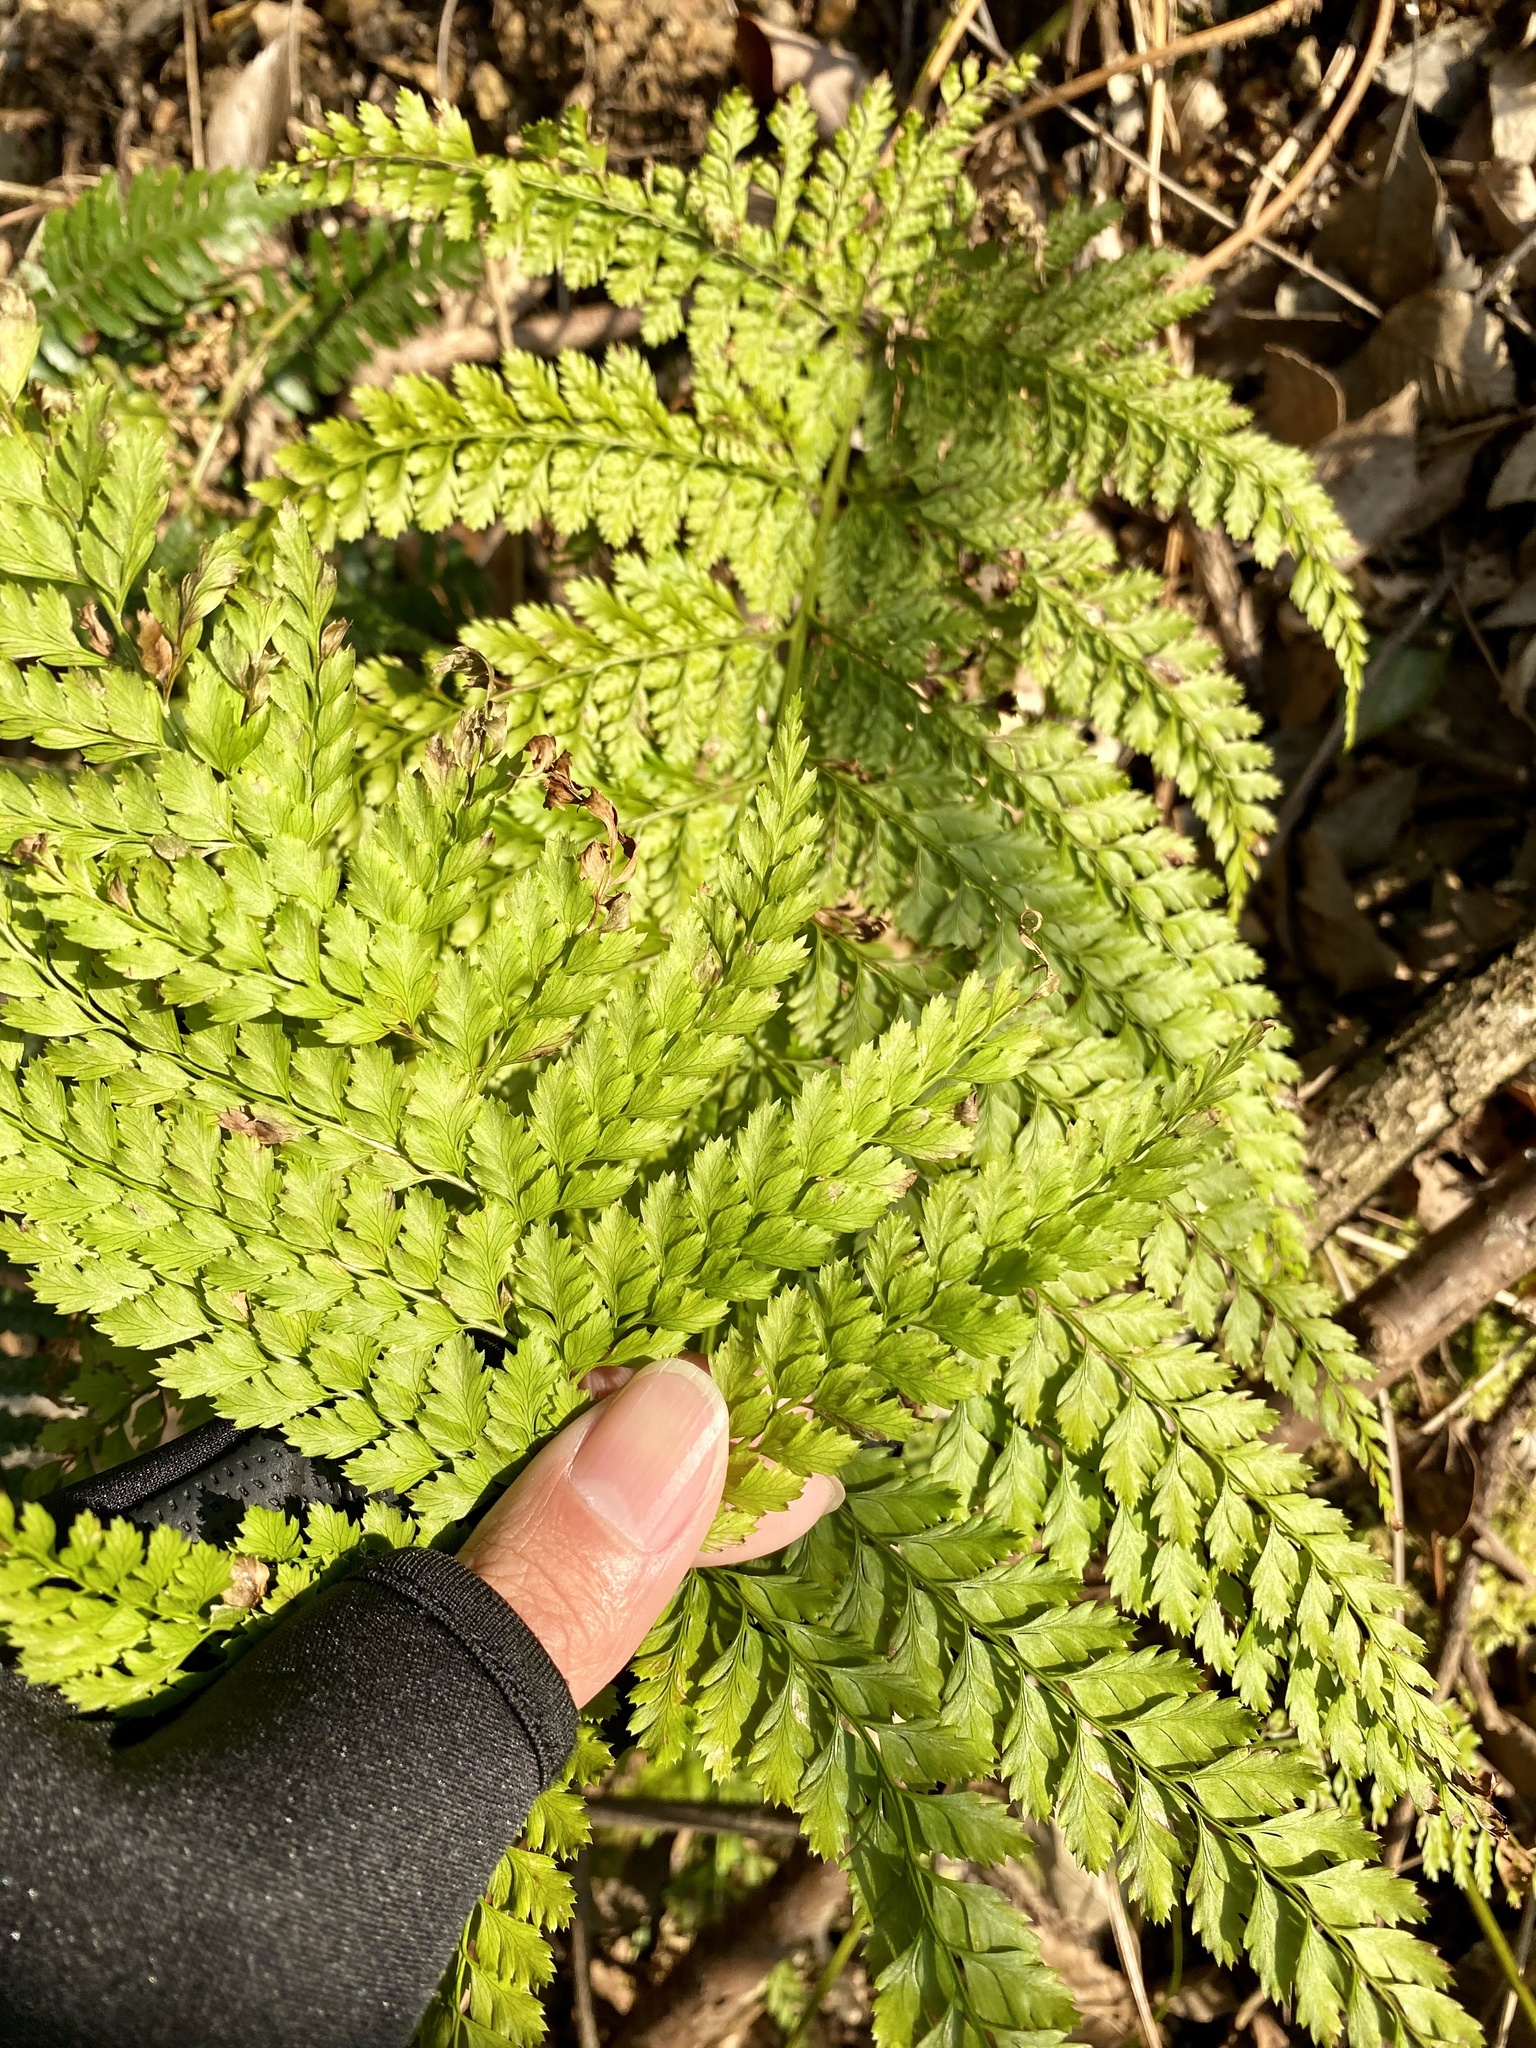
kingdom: Plantae
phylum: Tracheophyta
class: Polypodiopsida
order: Polypodiales
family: Dryopteridaceae
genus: Arachniodes
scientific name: Arachniodes standishii
